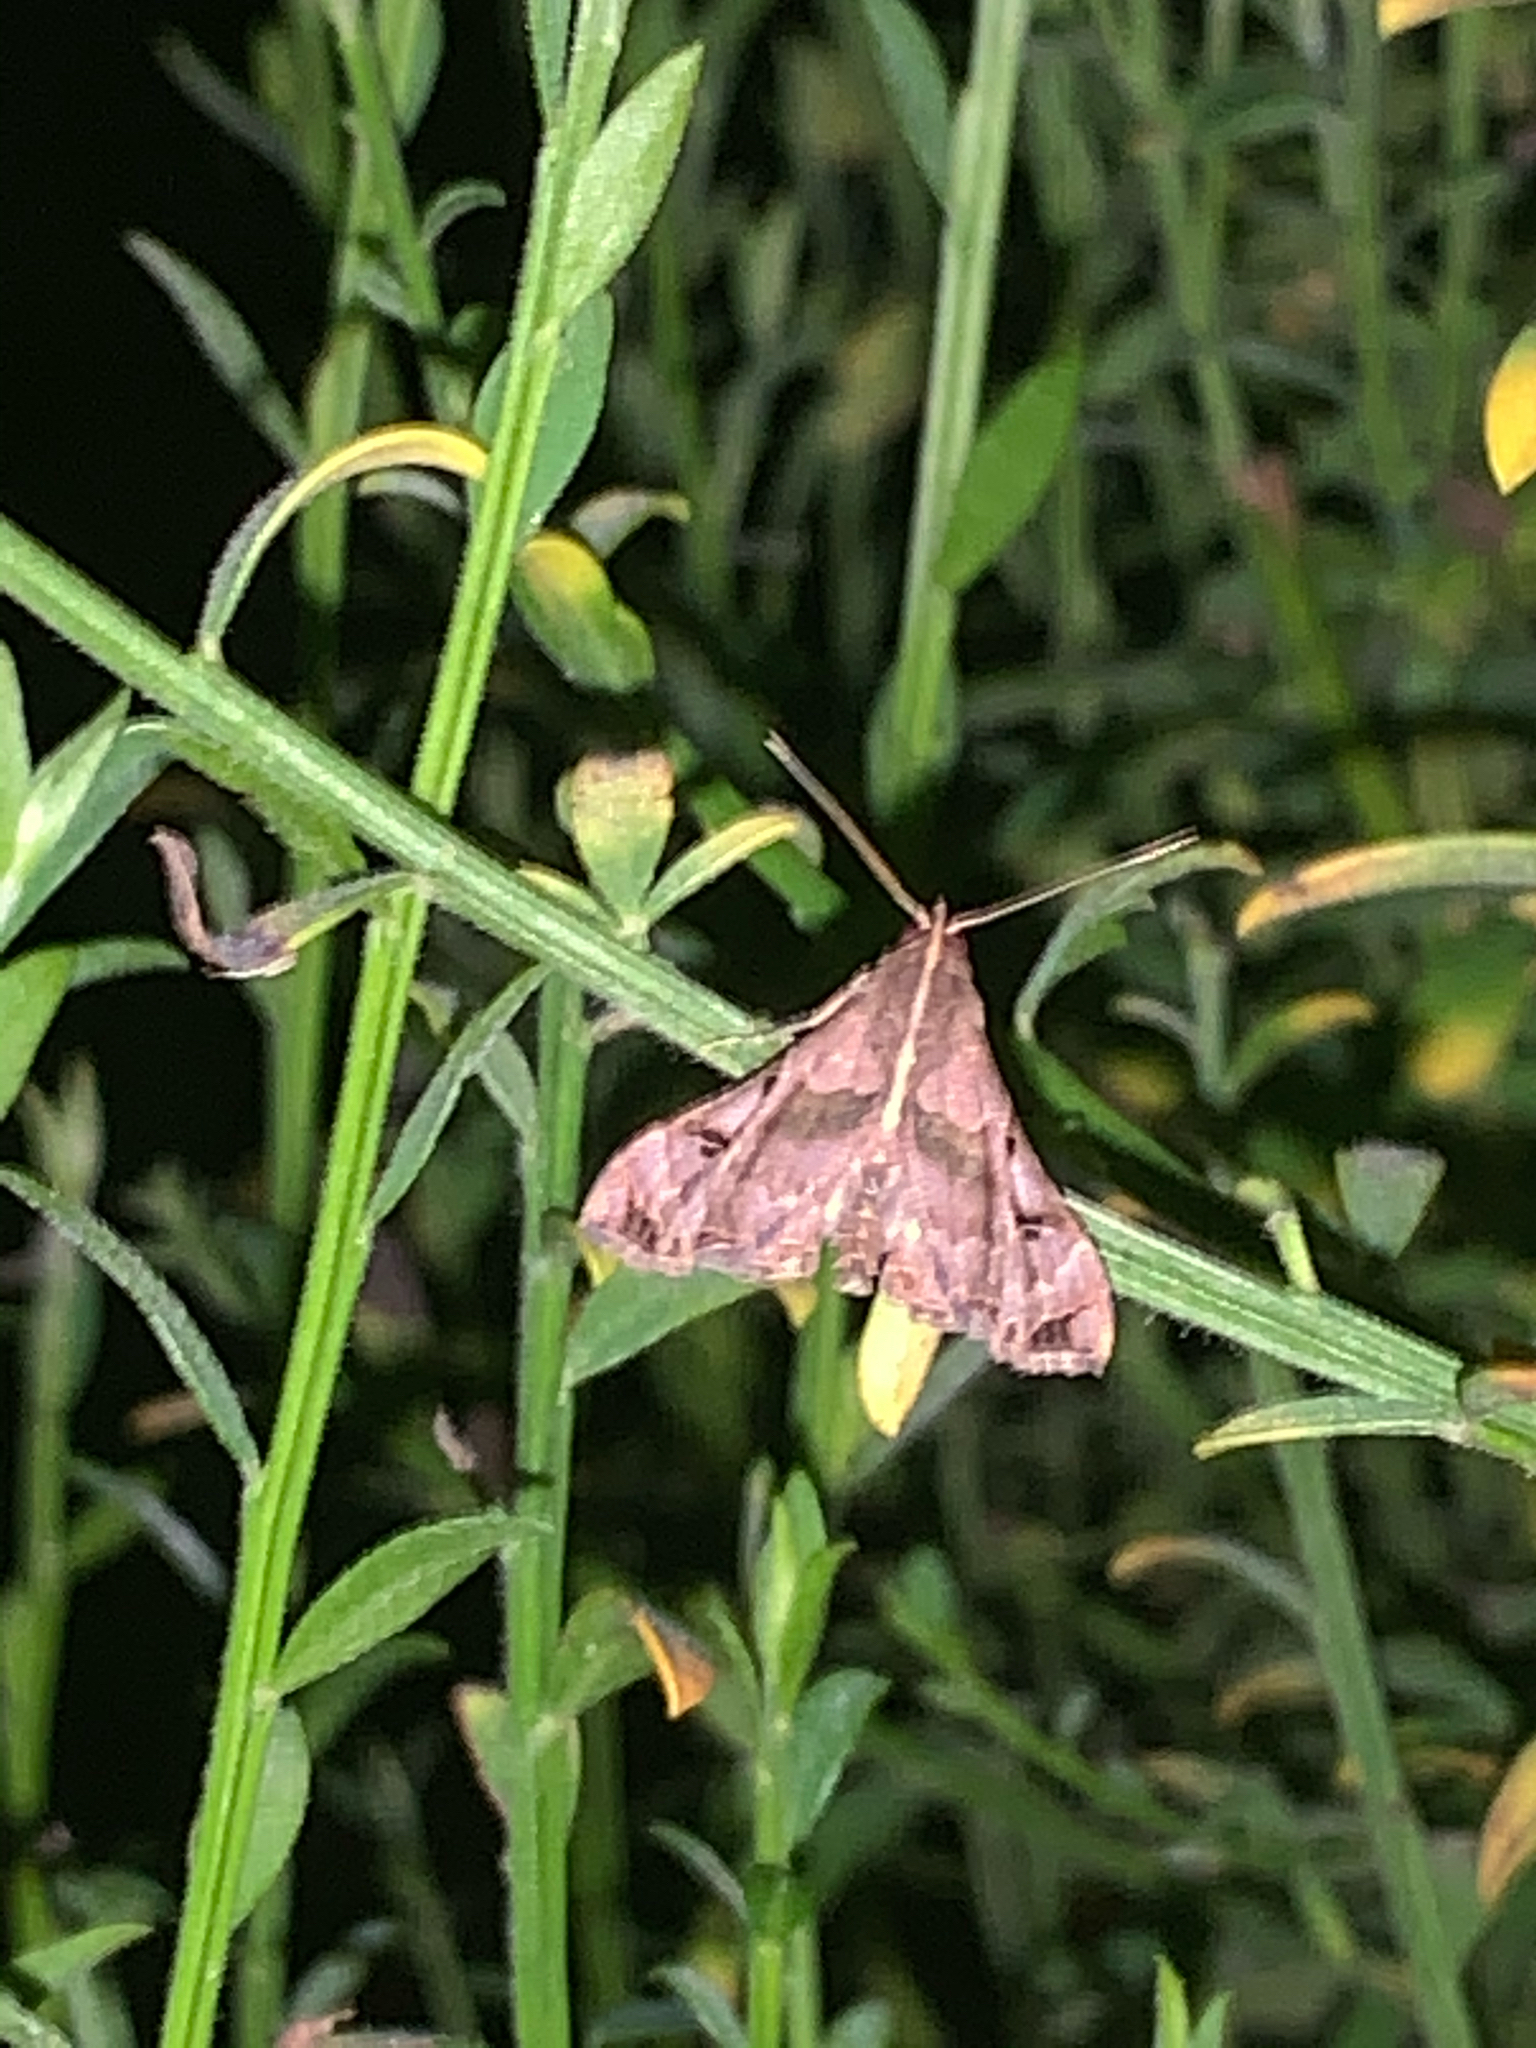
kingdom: Animalia
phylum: Arthropoda
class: Insecta
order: Lepidoptera
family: Erebidae
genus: Palthis
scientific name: Palthis asopialis
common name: Faint-spotted palthis moth
